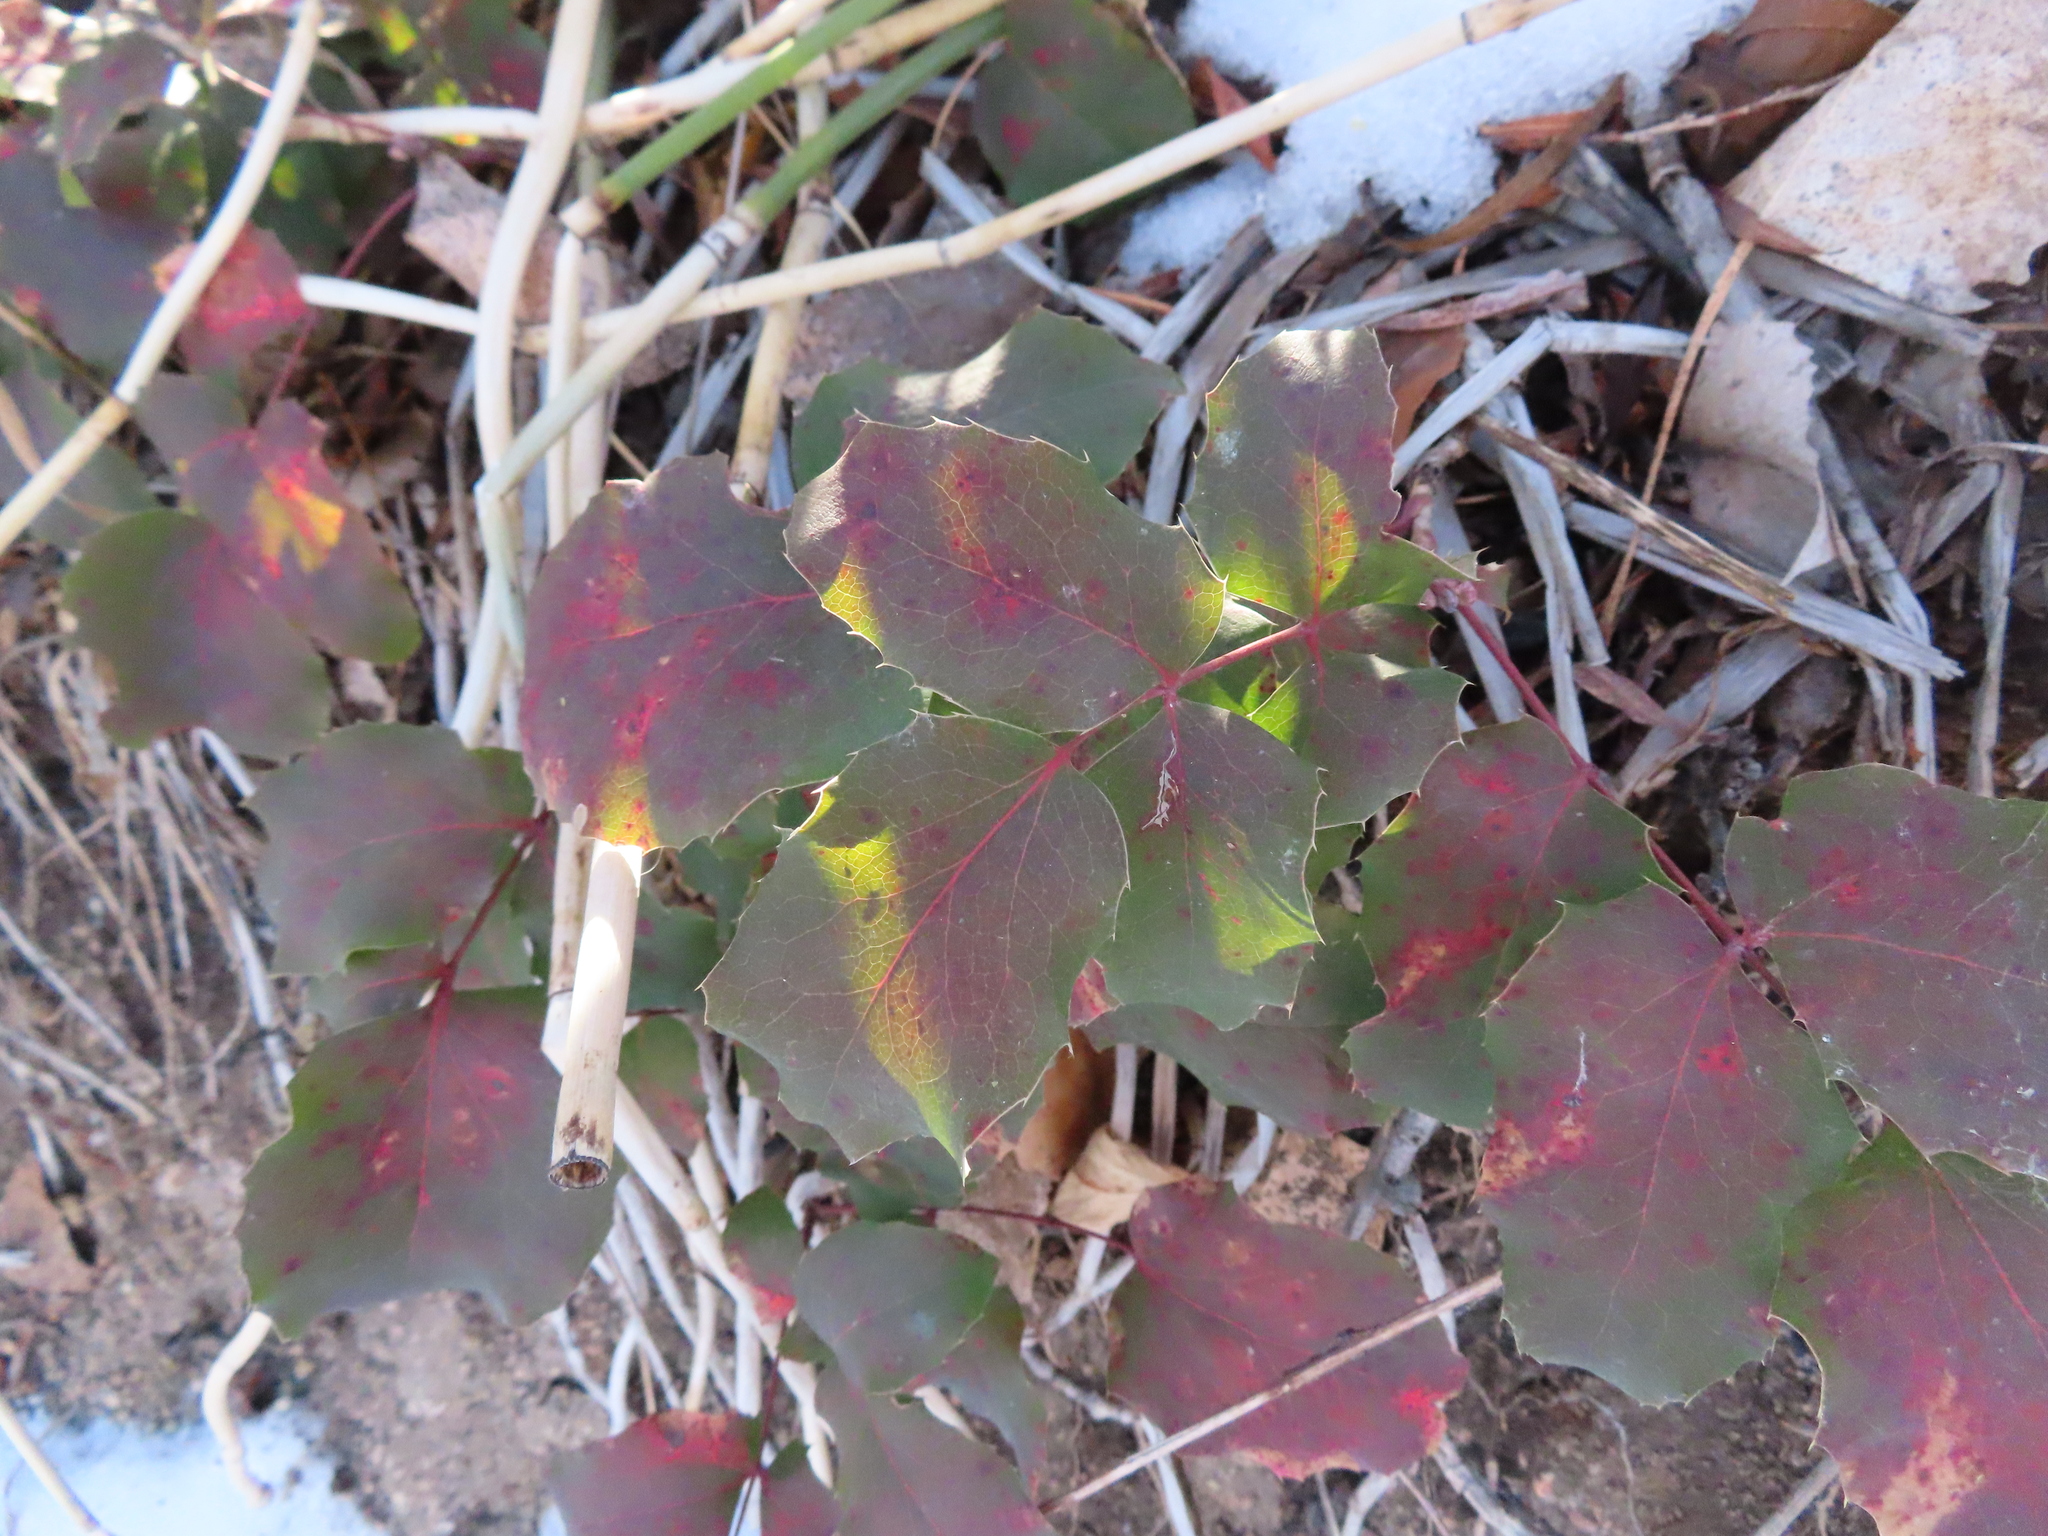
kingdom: Plantae
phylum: Tracheophyta
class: Magnoliopsida
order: Ranunculales
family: Berberidaceae
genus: Mahonia
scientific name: Mahonia repens
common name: Creeping oregon-grape
